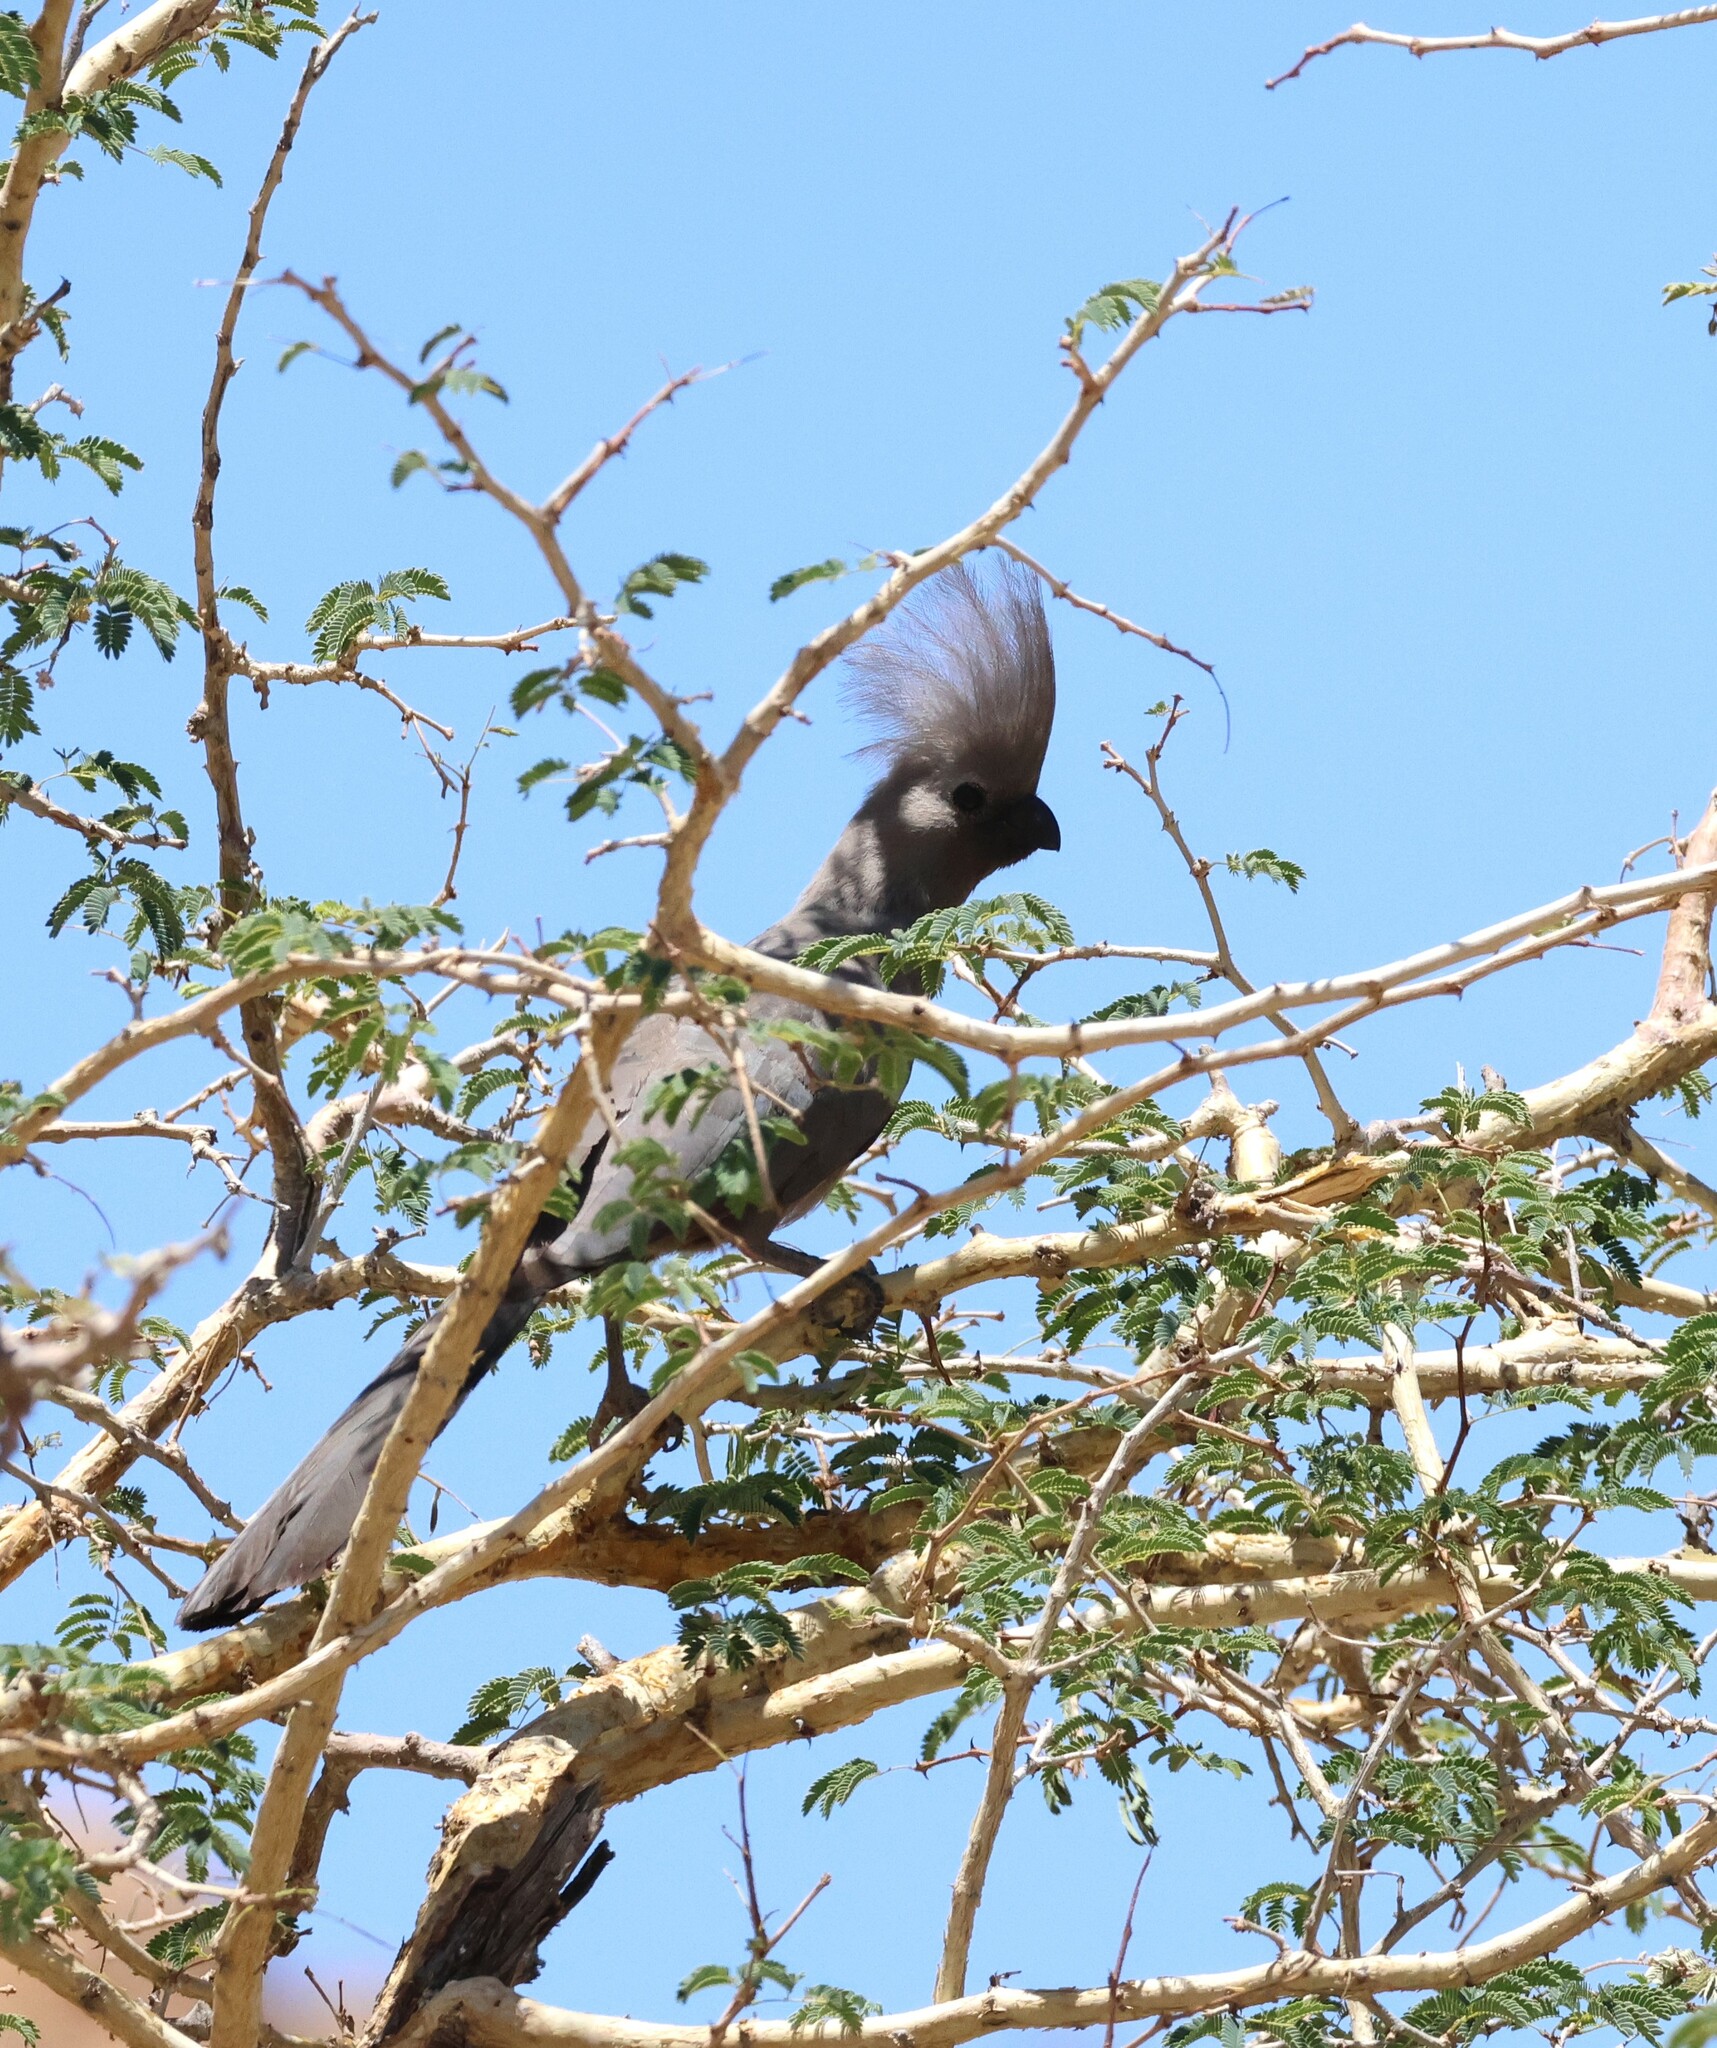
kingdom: Animalia
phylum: Chordata
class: Aves
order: Musophagiformes
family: Musophagidae
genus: Corythaixoides
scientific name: Corythaixoides concolor
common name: Grey go-away-bird
